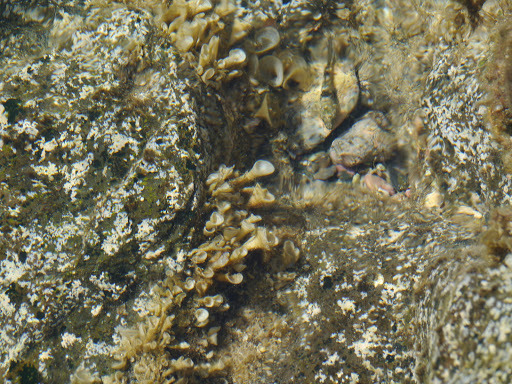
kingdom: Chromista
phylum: Ochrophyta
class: Phaeophyceae
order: Dictyotales
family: Dictyotaceae
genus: Padina
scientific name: Padina sanctae-crucis
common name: White scroll algae
